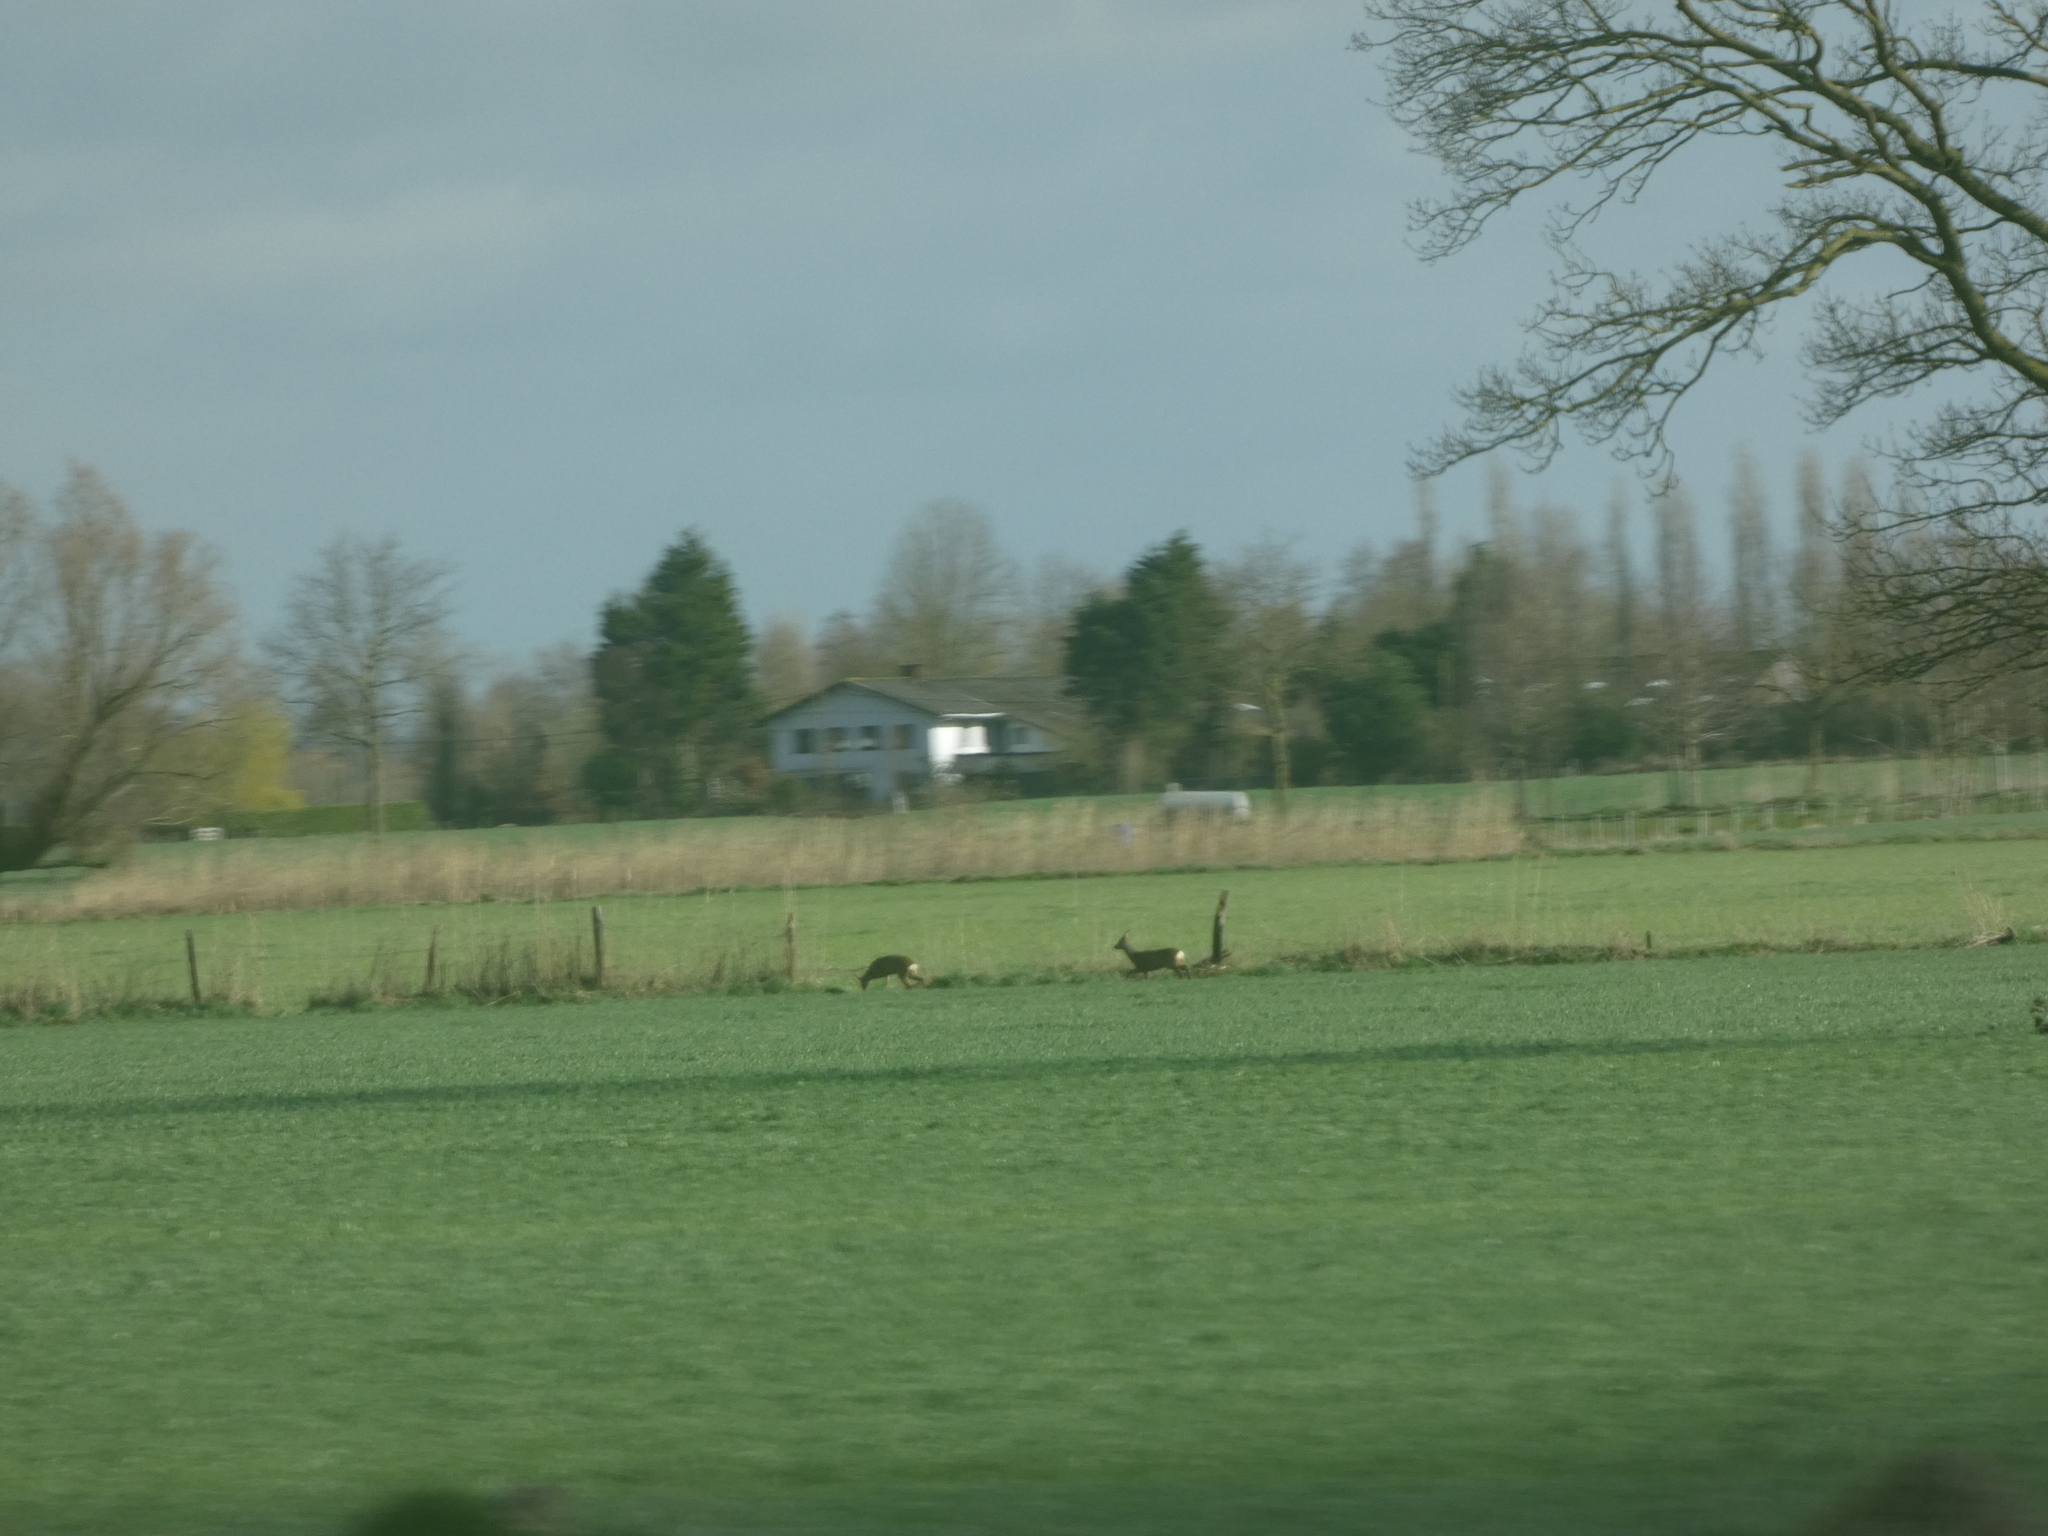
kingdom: Animalia
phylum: Chordata
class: Mammalia
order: Artiodactyla
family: Cervidae
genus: Capreolus
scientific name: Capreolus capreolus
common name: Western roe deer
